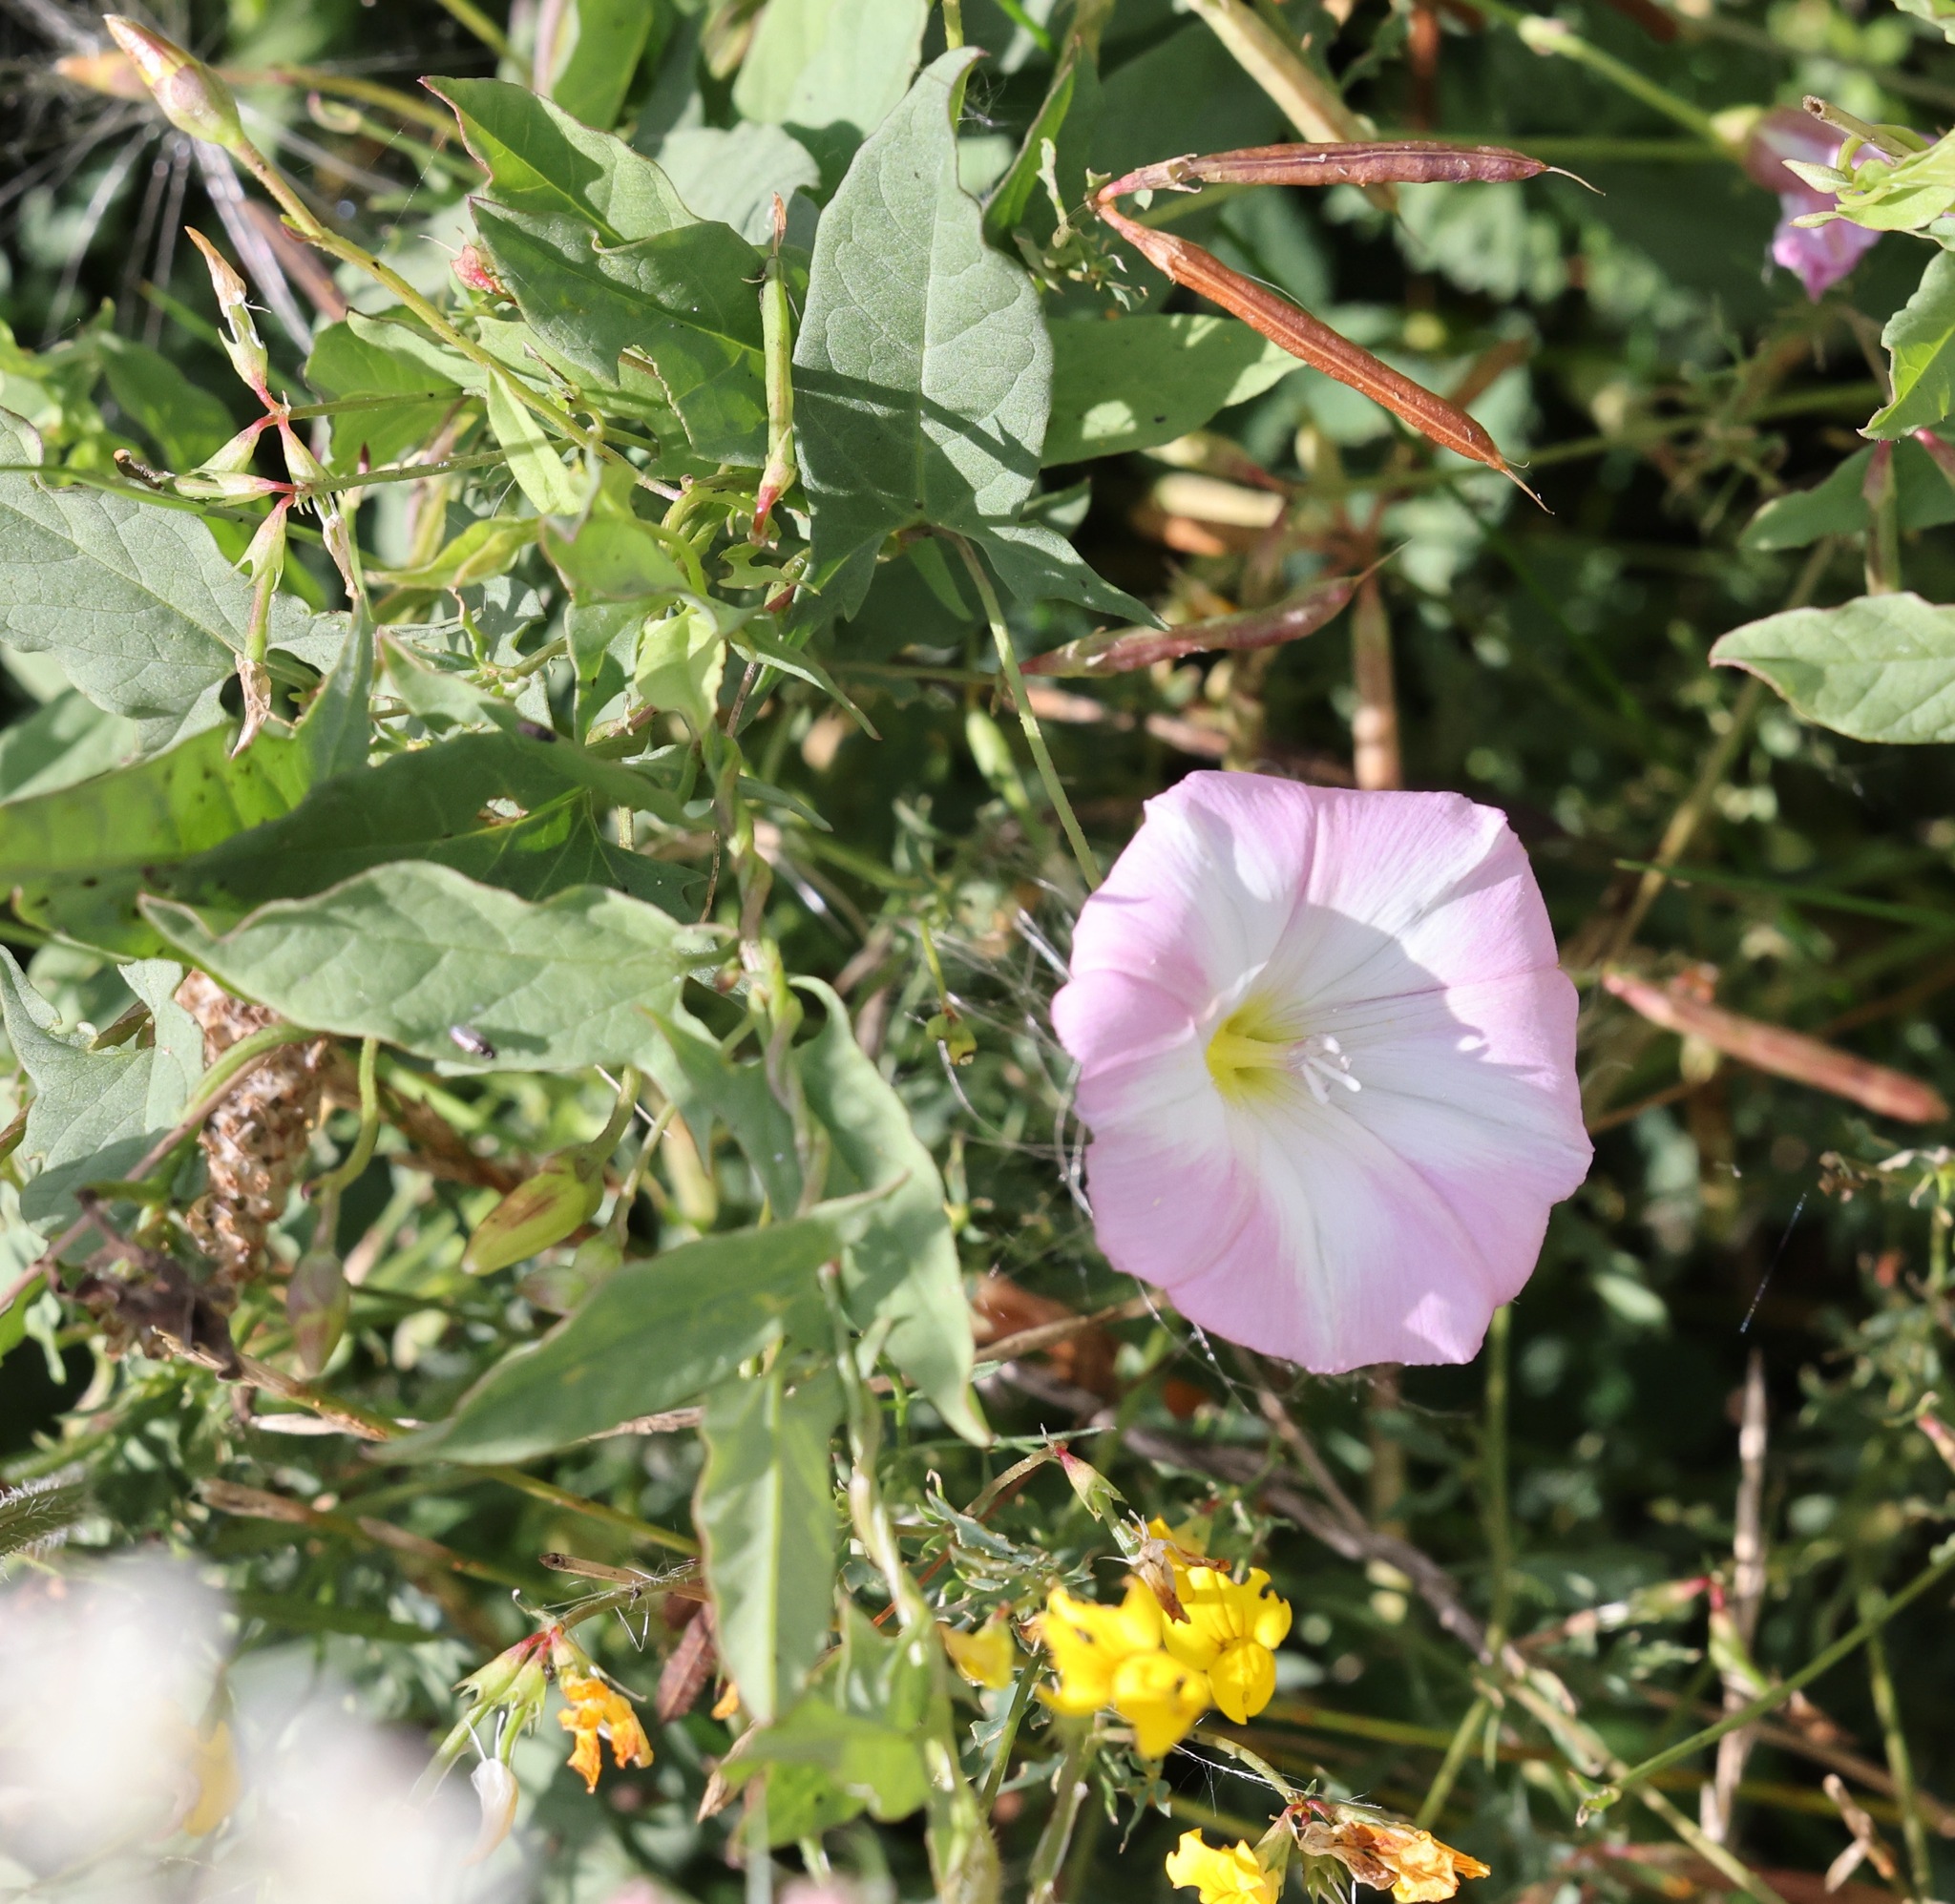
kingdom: Plantae
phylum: Tracheophyta
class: Magnoliopsida
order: Solanales
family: Convolvulaceae
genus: Convolvulus
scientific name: Convolvulus arvensis
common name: Field bindweed
